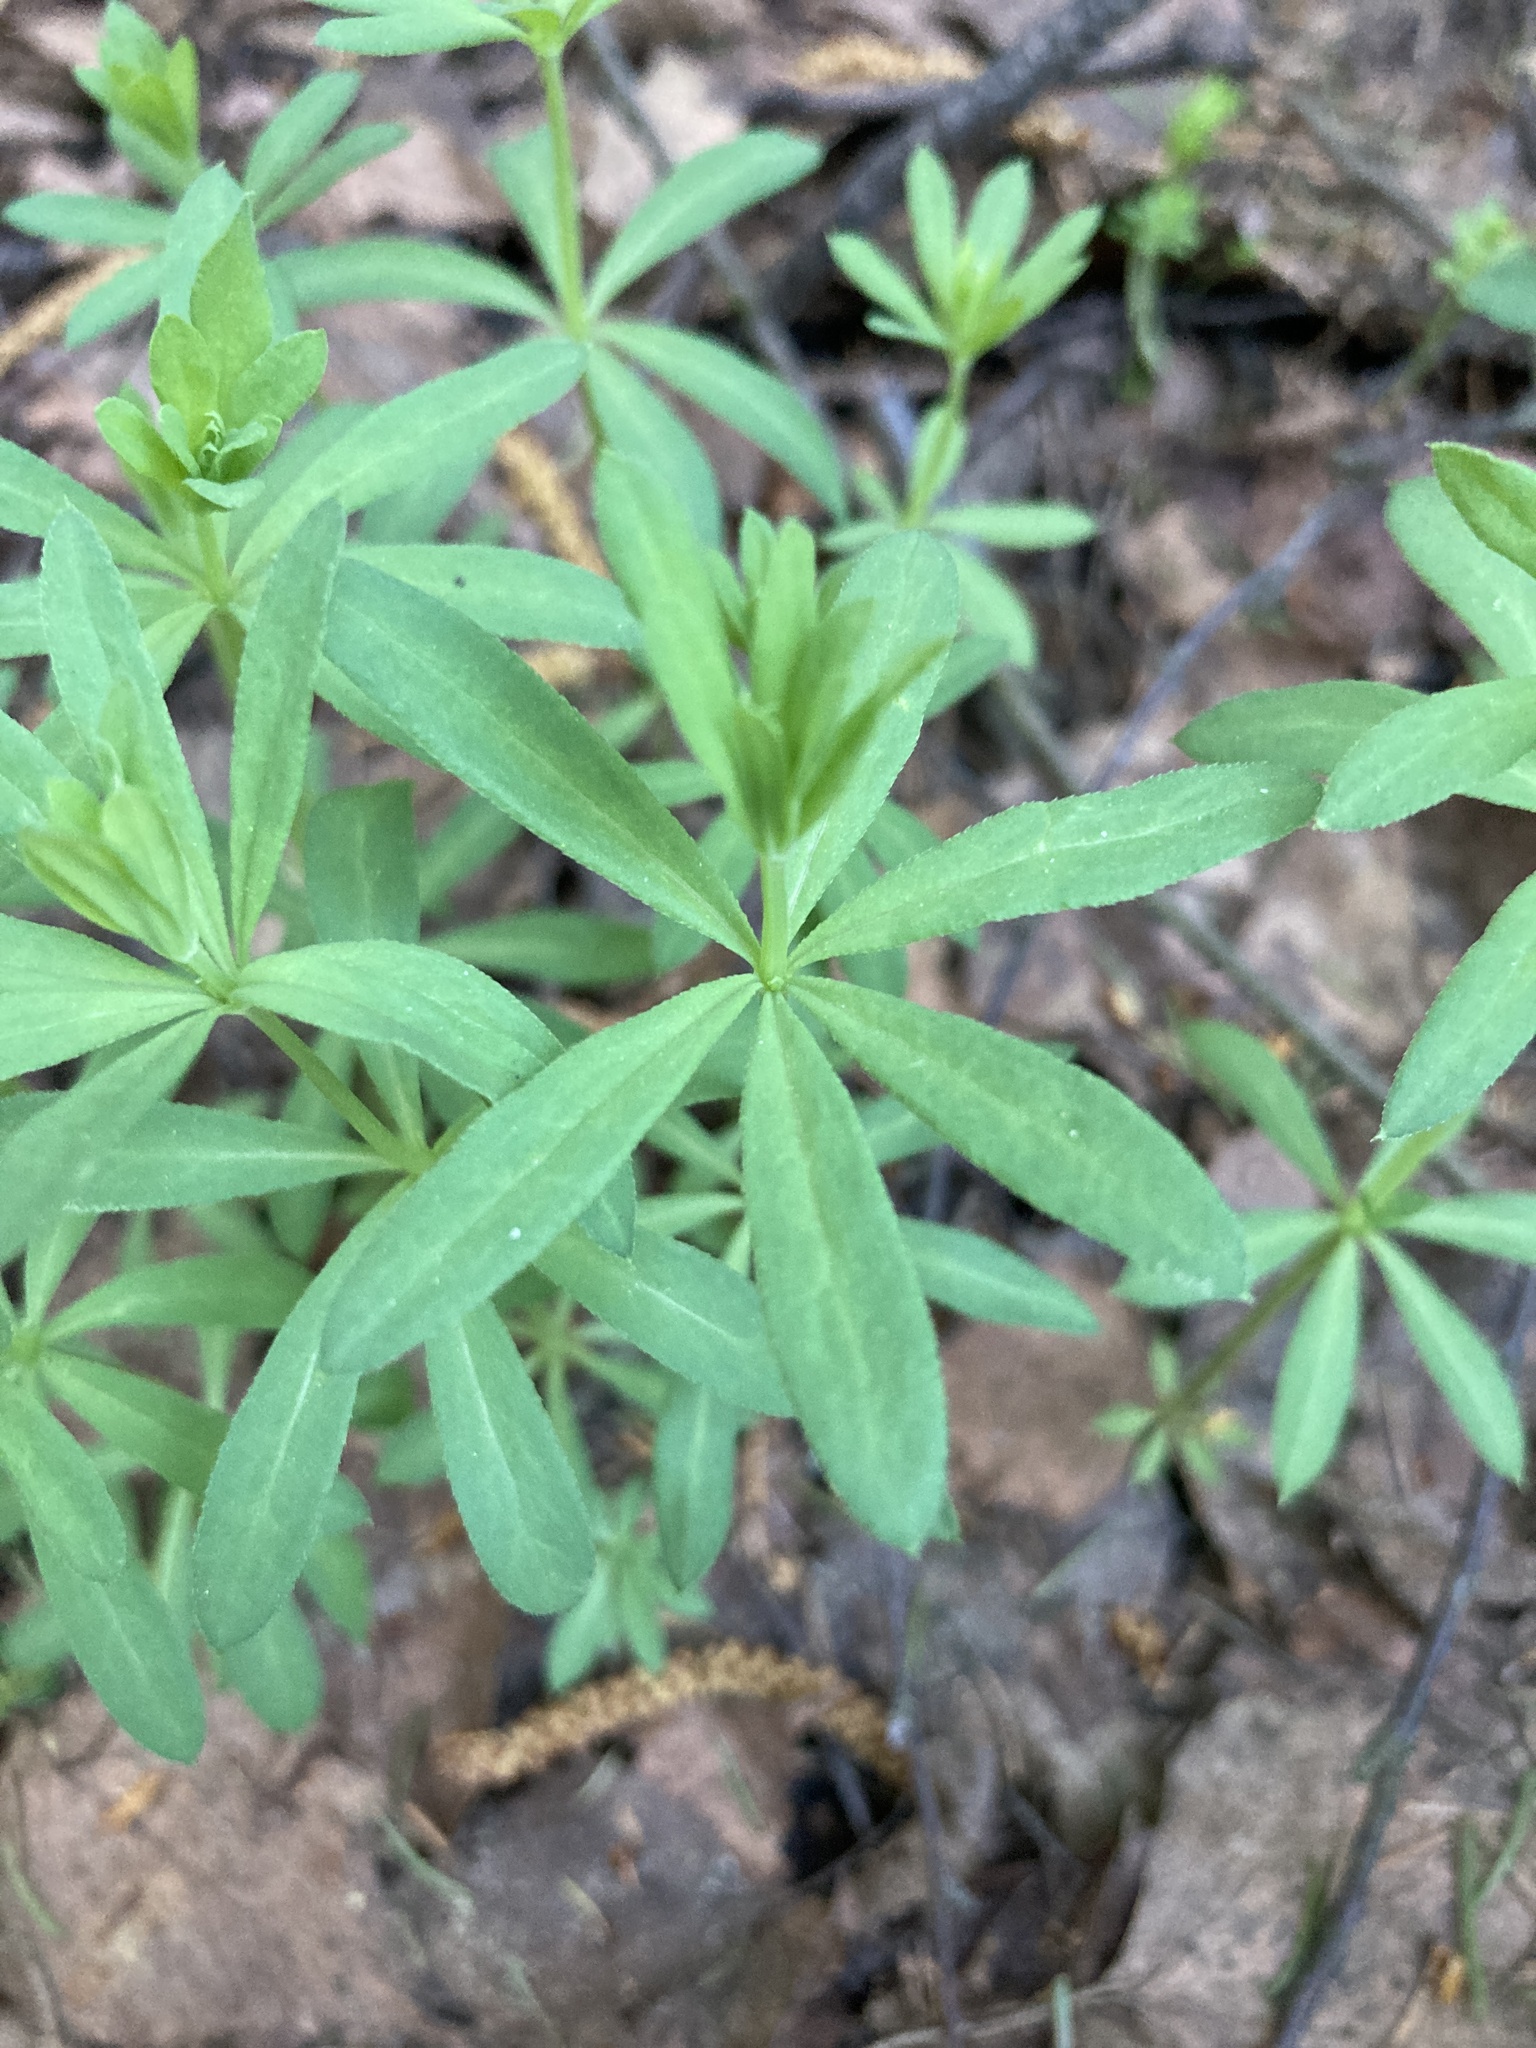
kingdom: Plantae
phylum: Tracheophyta
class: Magnoliopsida
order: Gentianales
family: Rubiaceae
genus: Galium
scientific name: Galium intermedium
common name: Bedstraw
